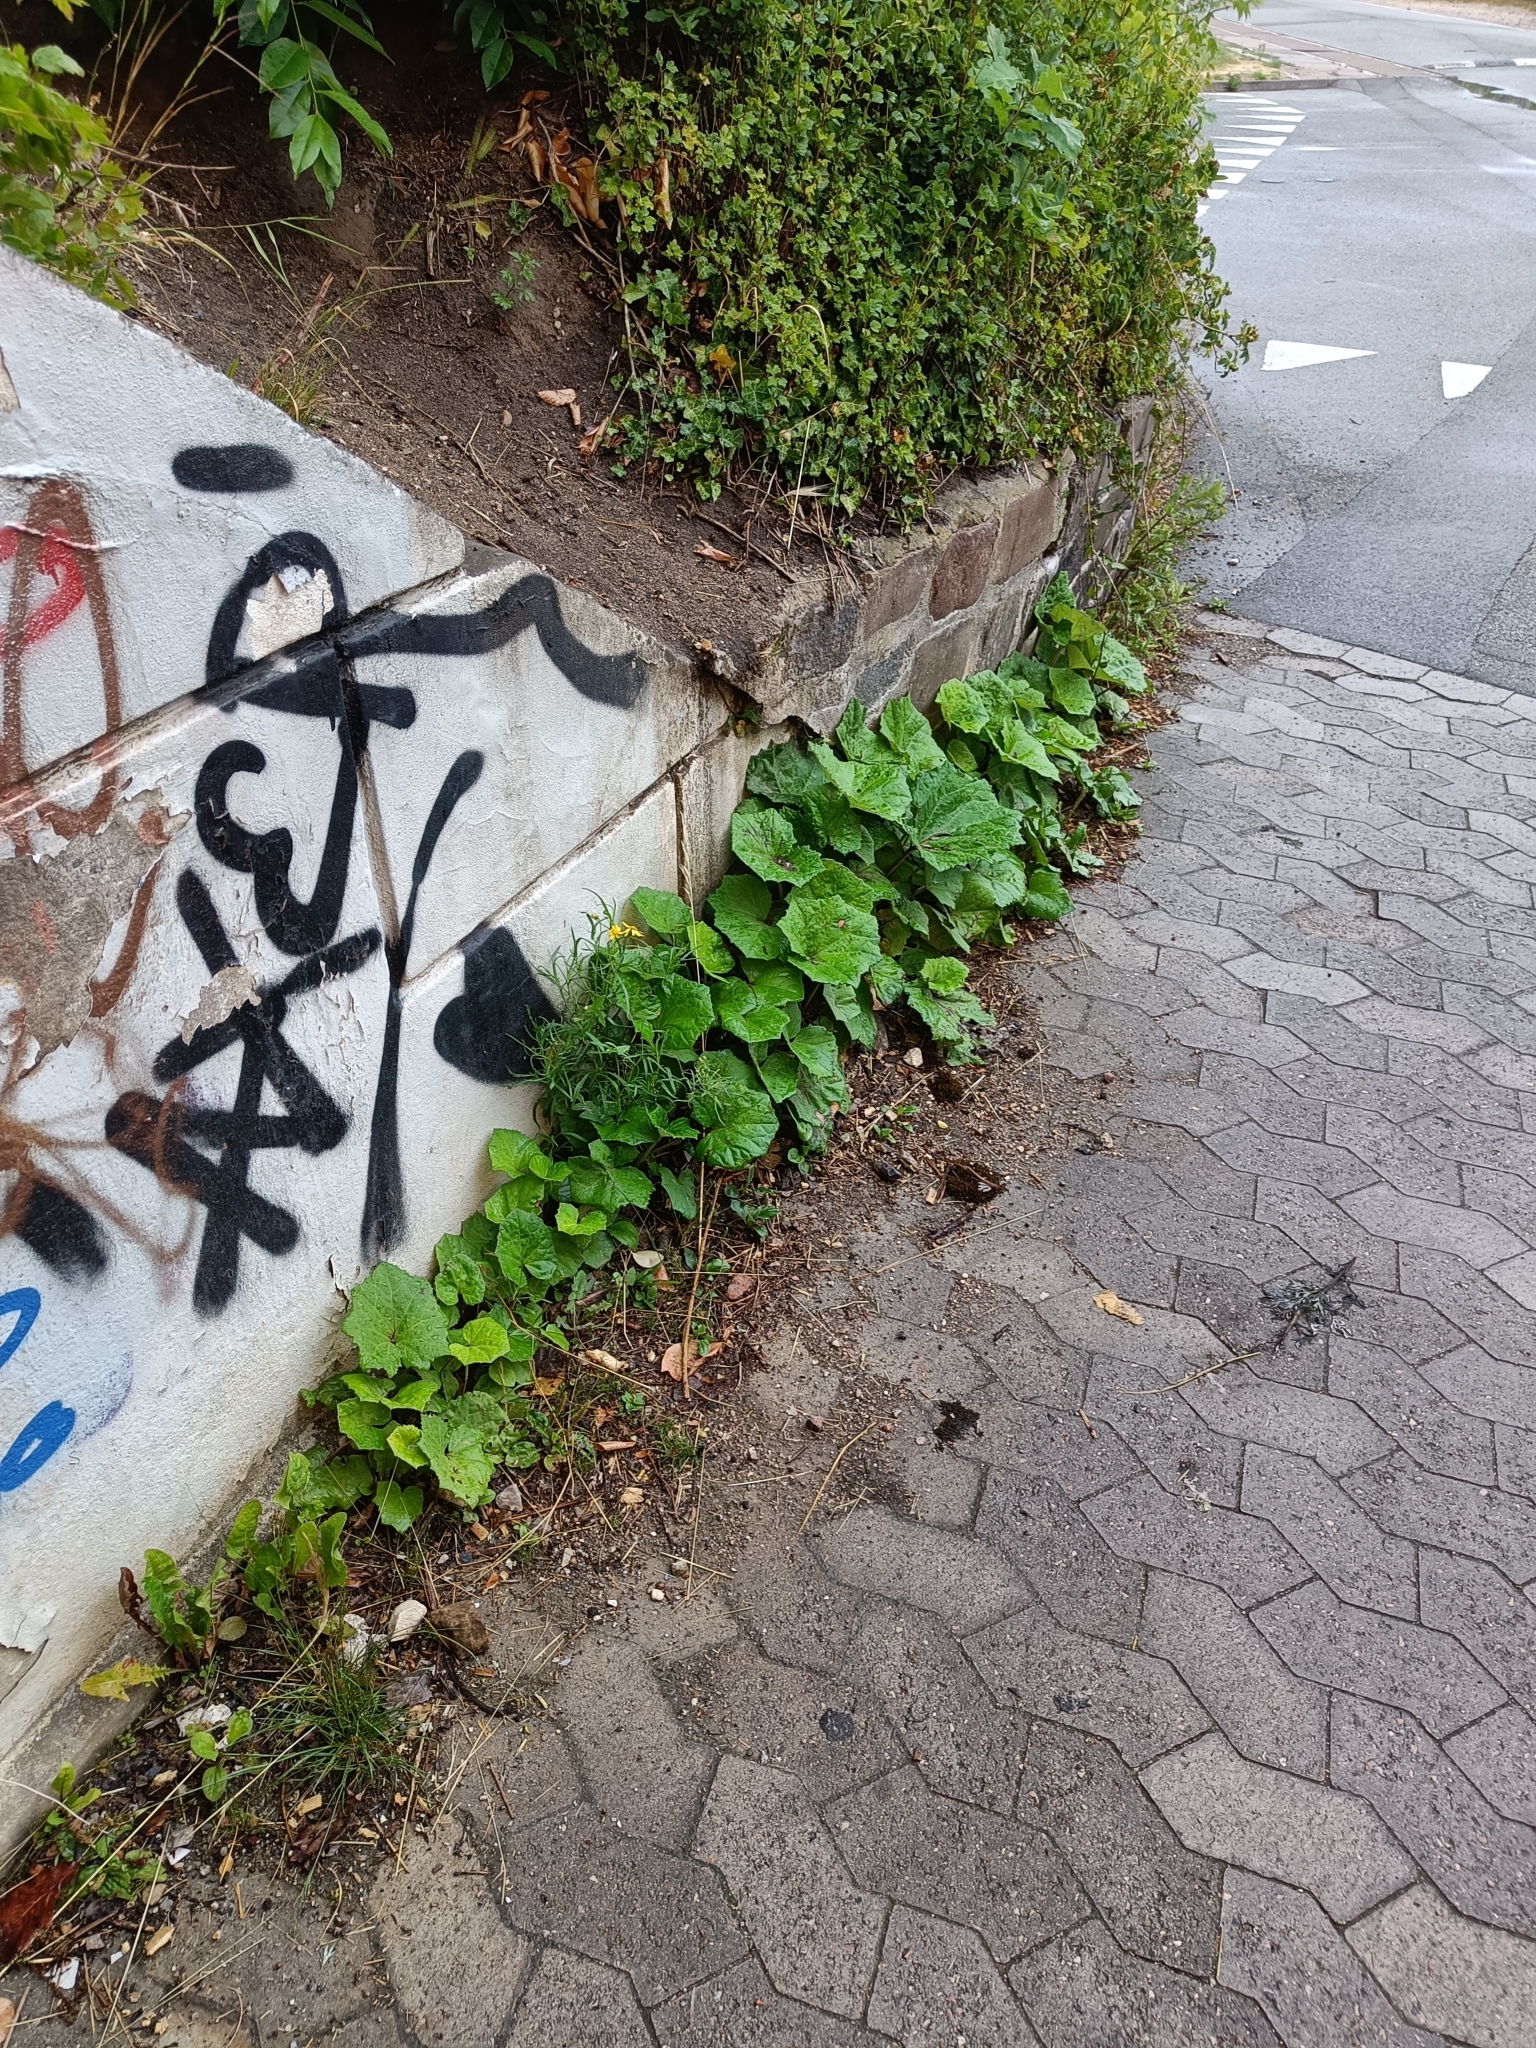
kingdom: Plantae
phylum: Tracheophyta
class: Magnoliopsida
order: Asterales
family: Asteraceae
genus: Tussilago
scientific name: Tussilago farfara
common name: Coltsfoot
